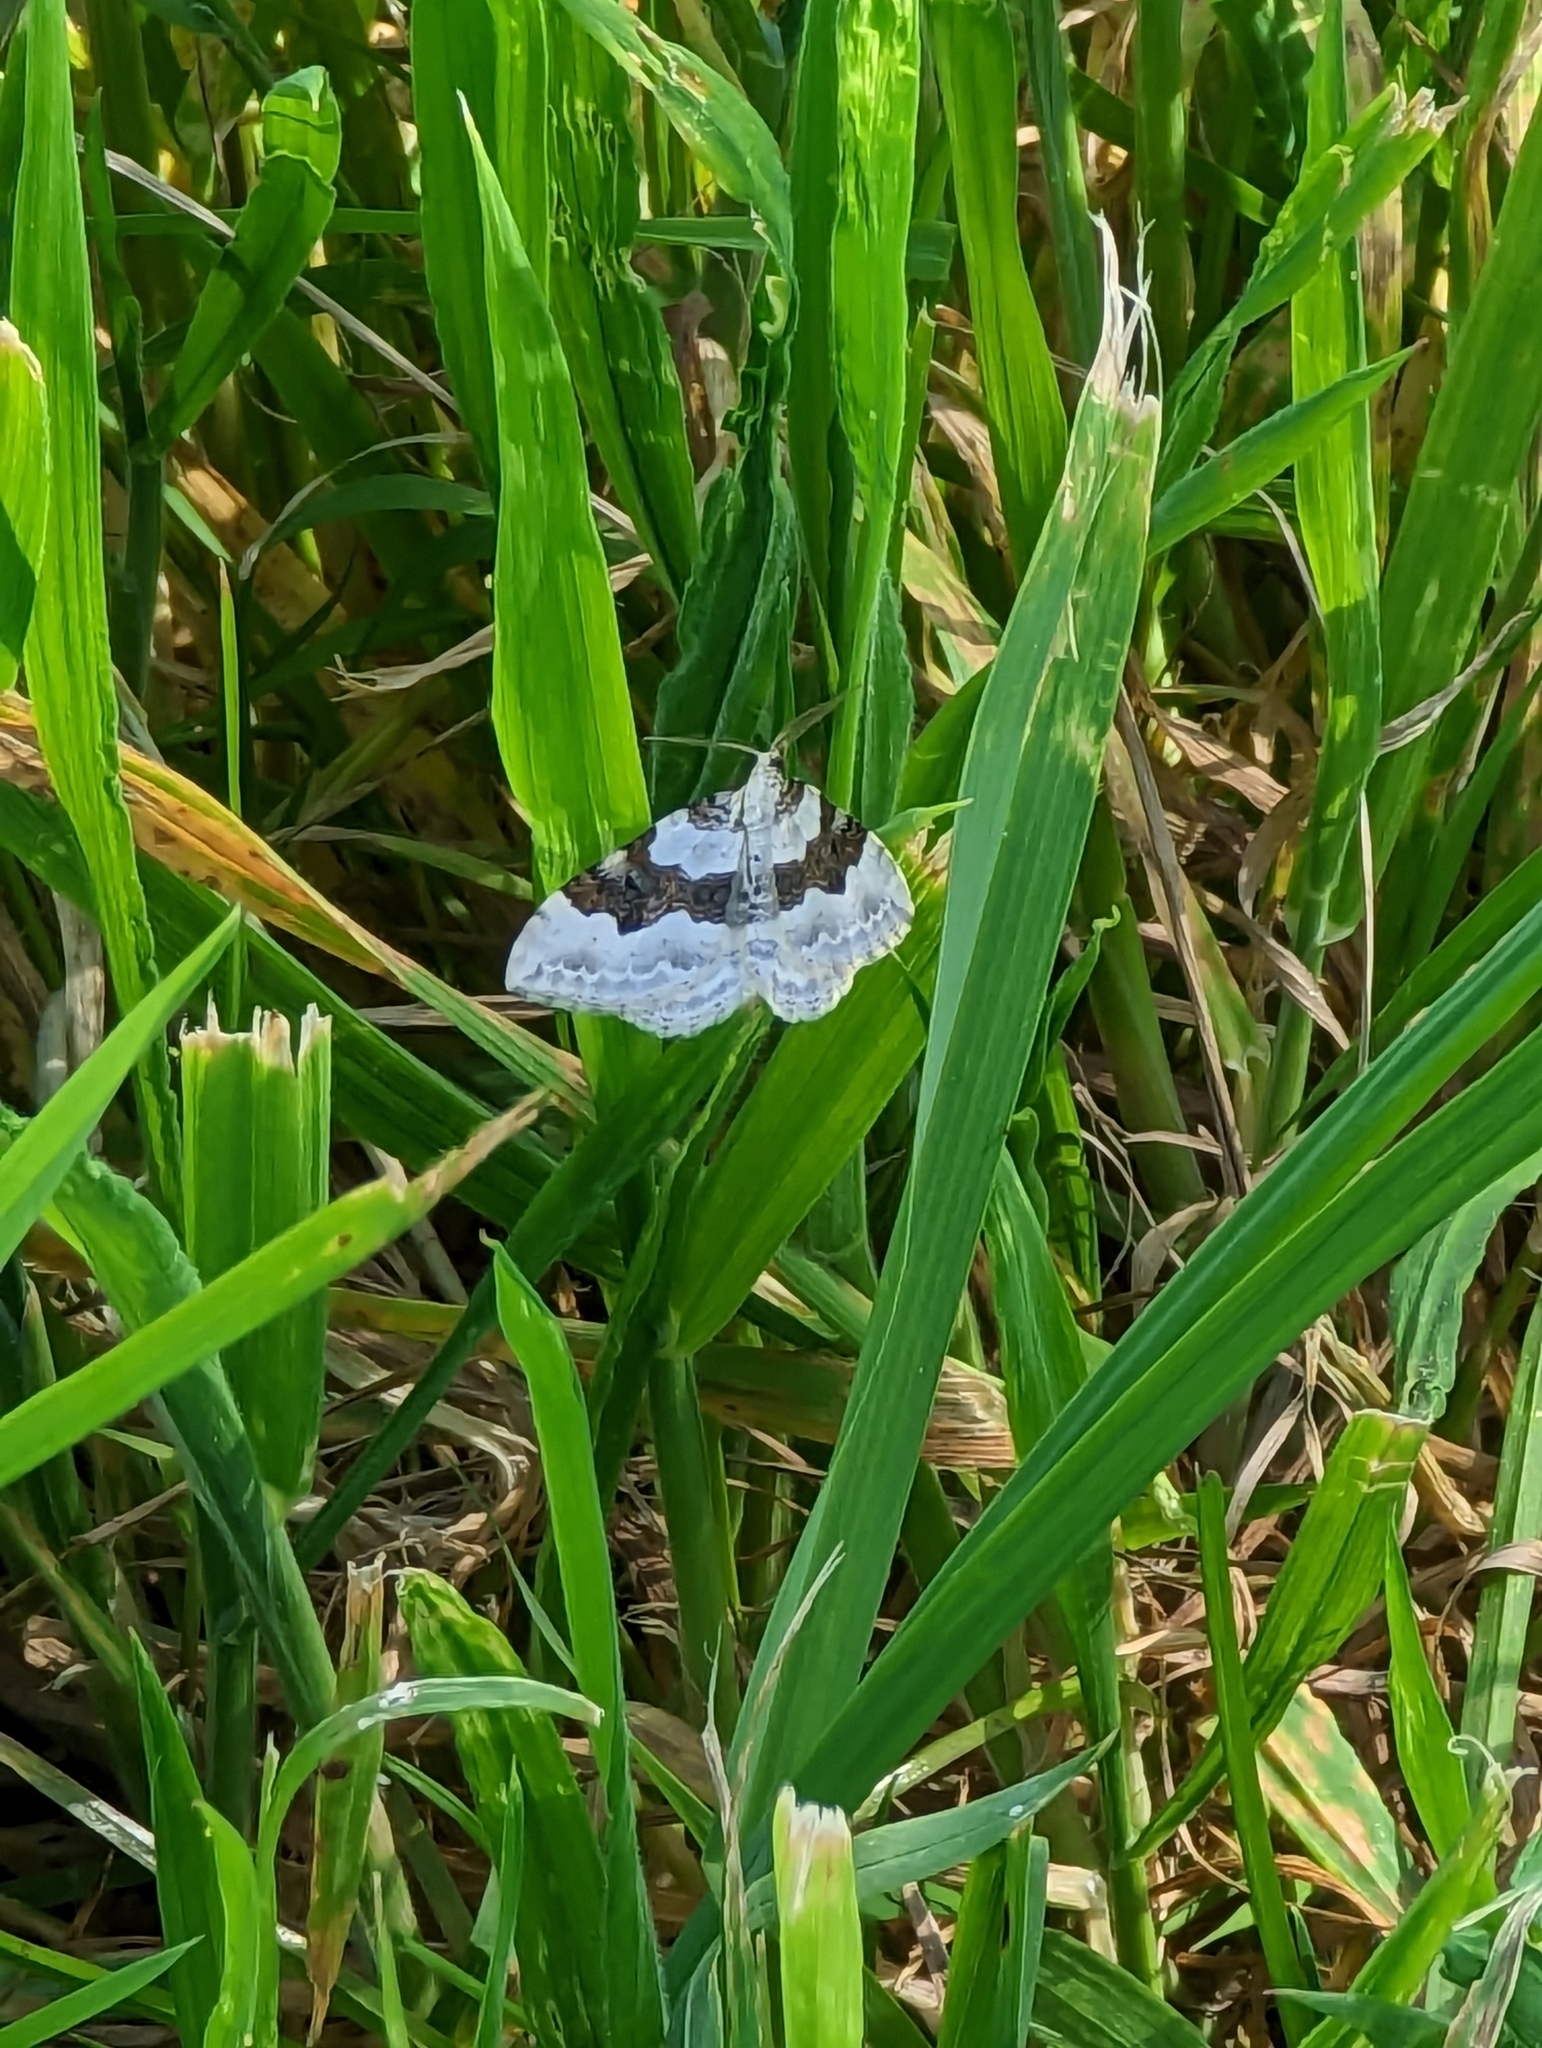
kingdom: Animalia
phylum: Arthropoda
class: Insecta
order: Lepidoptera
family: Geometridae
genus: Xanthorhoe
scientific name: Xanthorhoe montanata
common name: Silver-ground carpet
